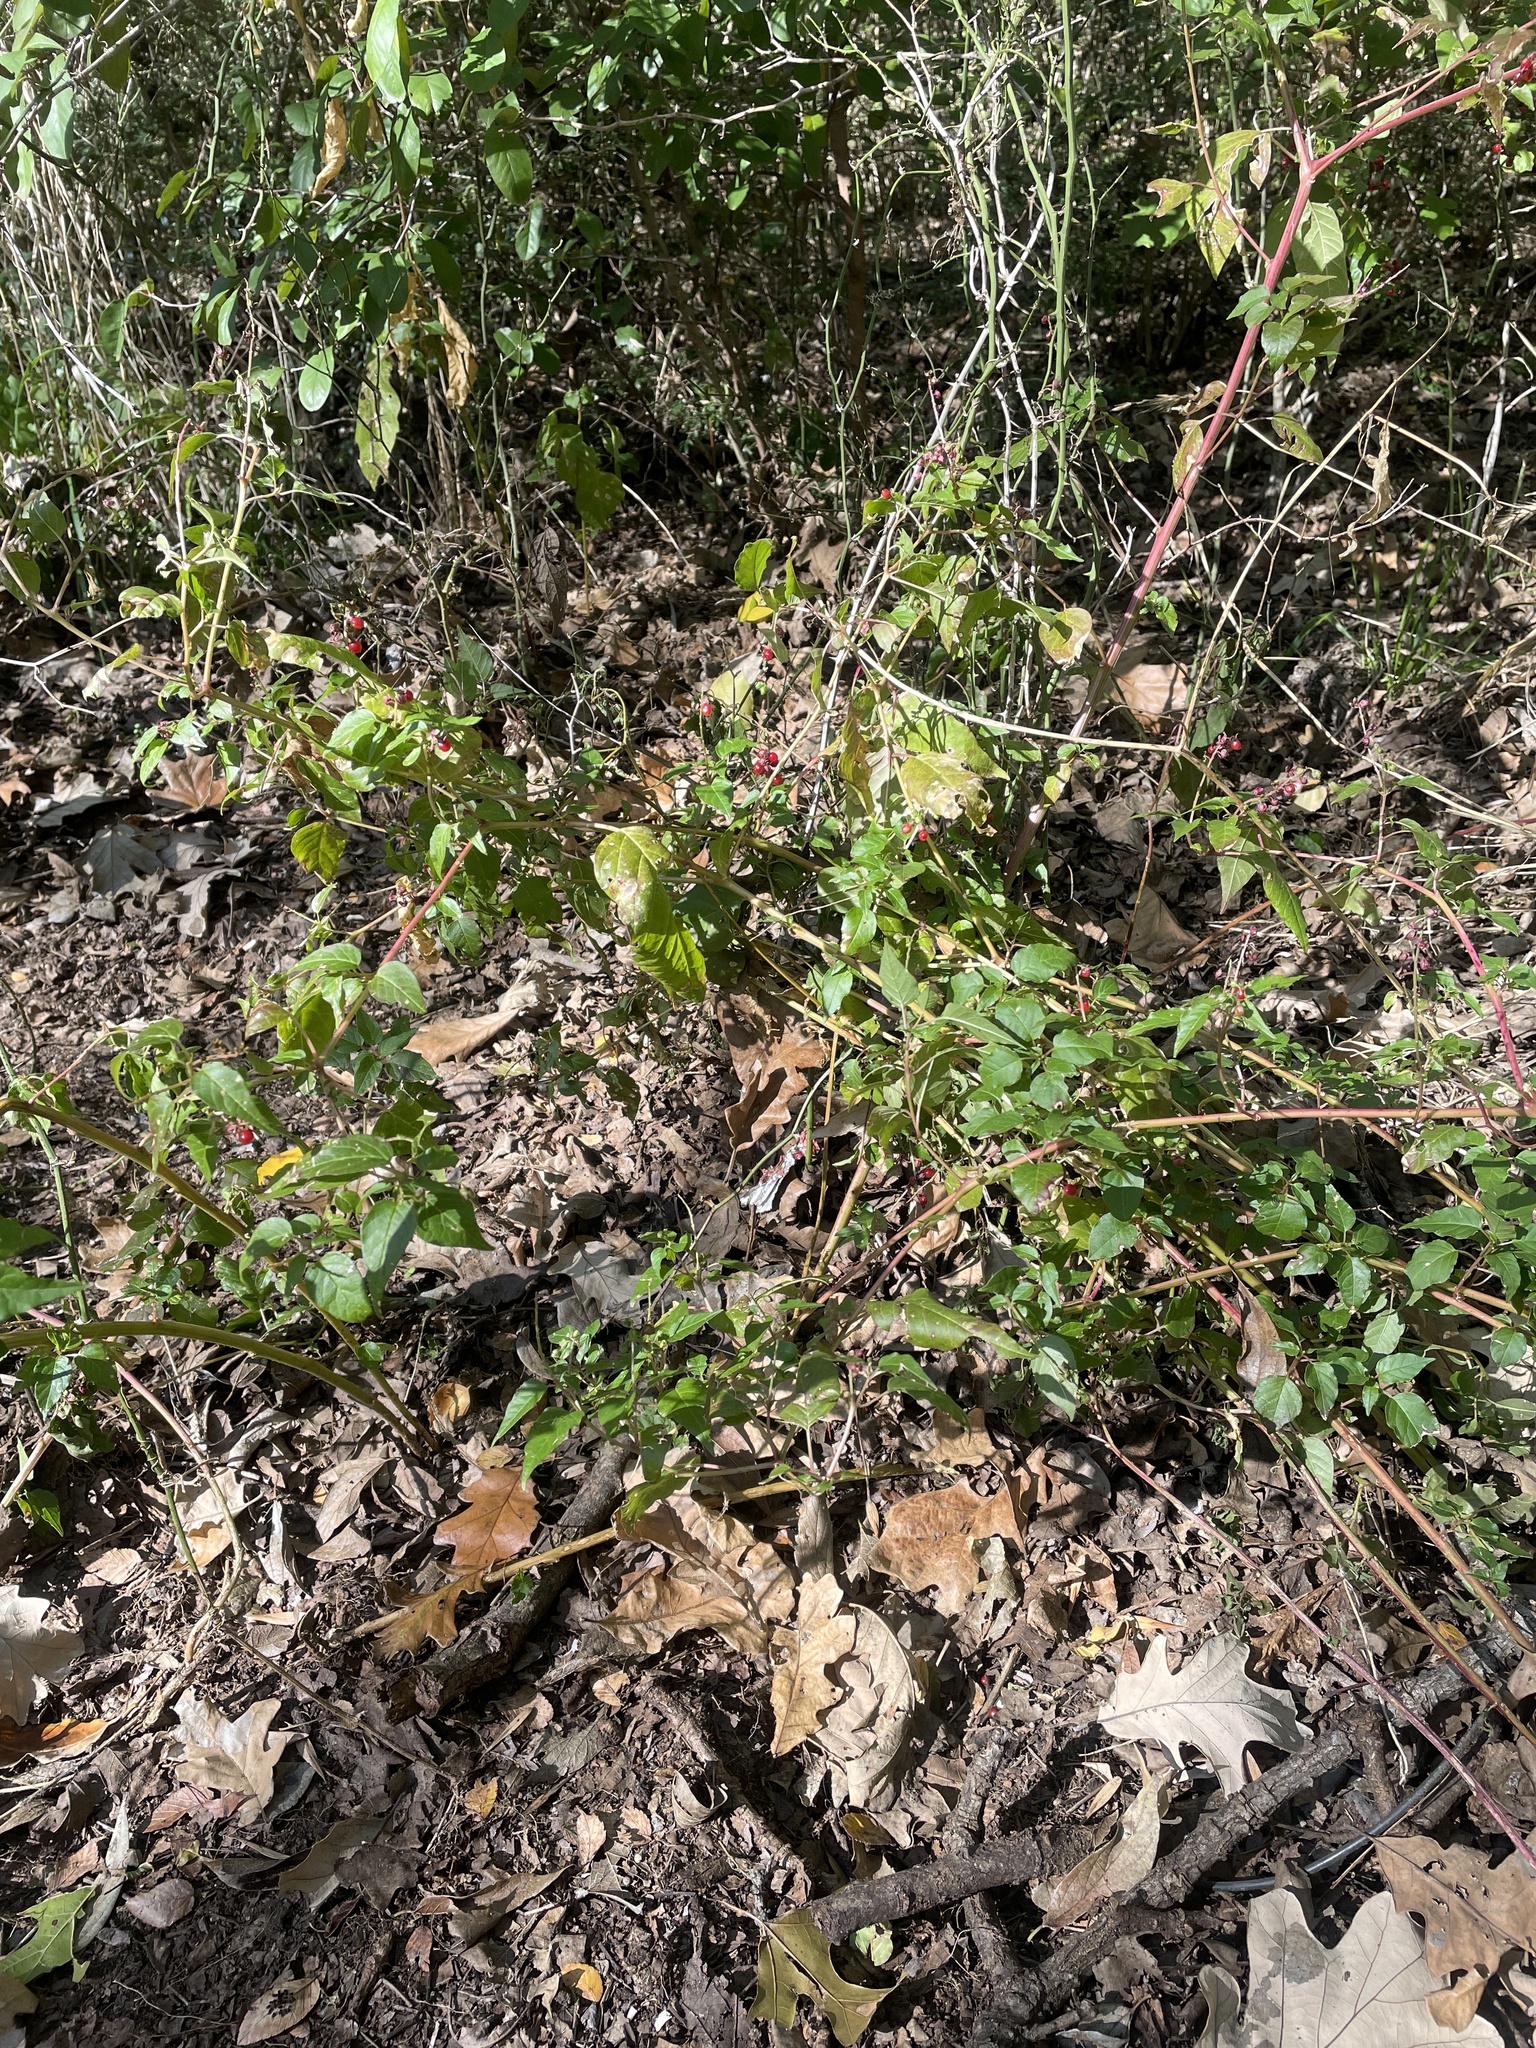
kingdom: Plantae
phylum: Tracheophyta
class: Magnoliopsida
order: Caryophyllales
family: Phytolaccaceae
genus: Rivina
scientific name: Rivina humilis
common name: Rougeplant
